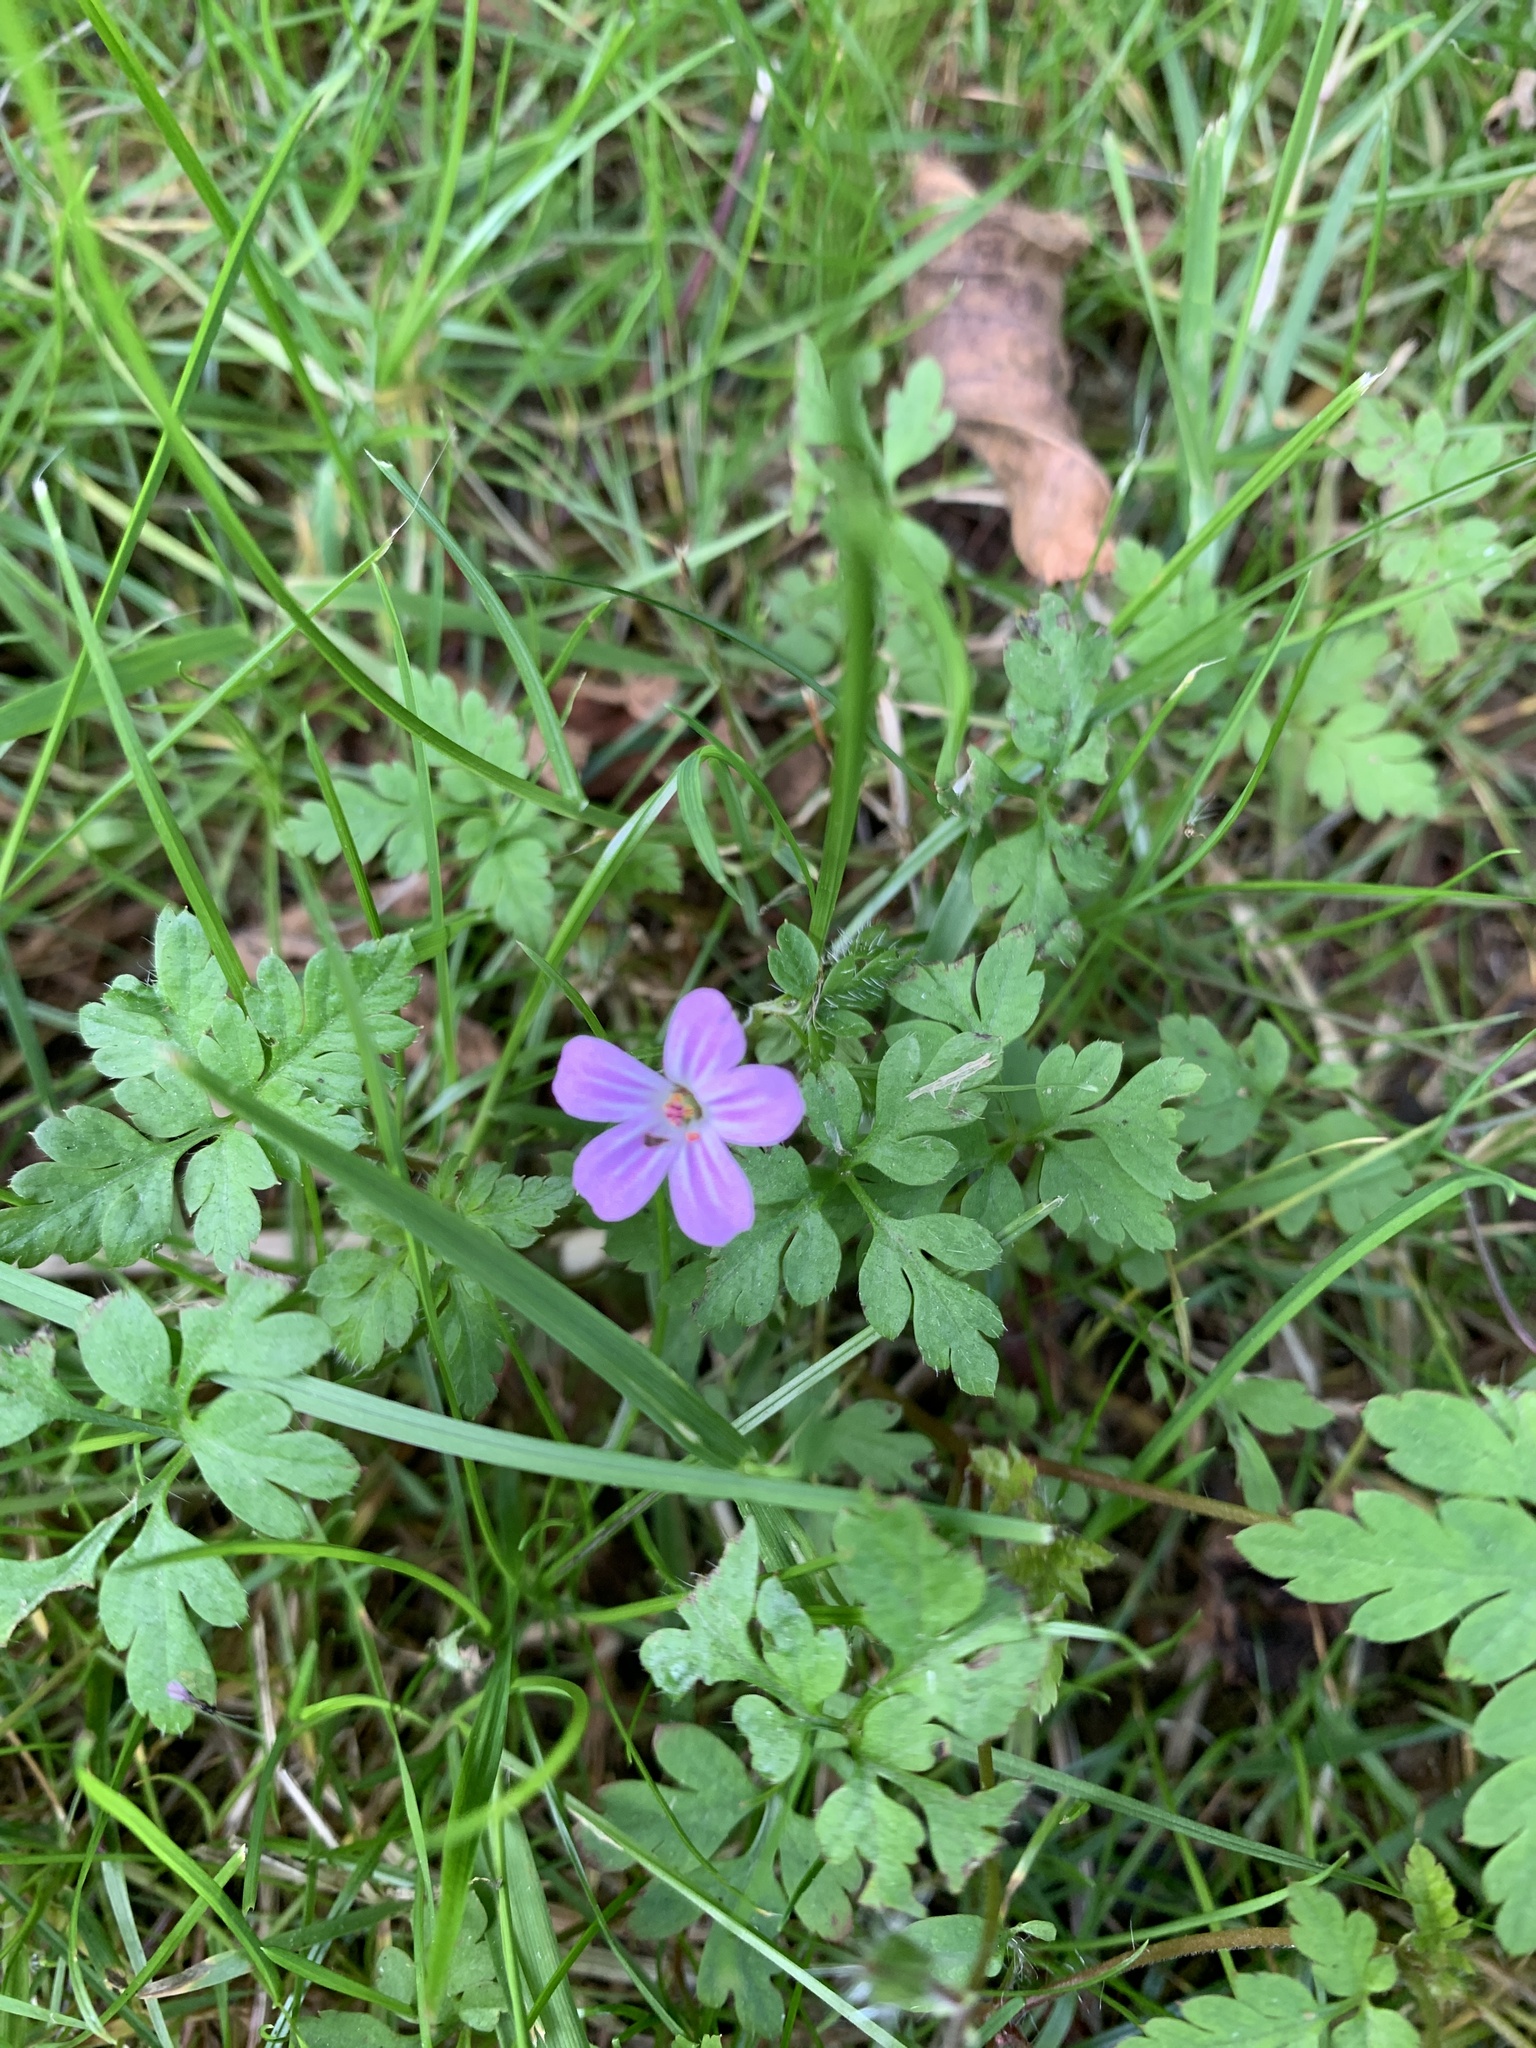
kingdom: Plantae
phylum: Tracheophyta
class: Magnoliopsida
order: Geraniales
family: Geraniaceae
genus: Geranium
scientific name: Geranium robertianum
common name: Herb-robert
